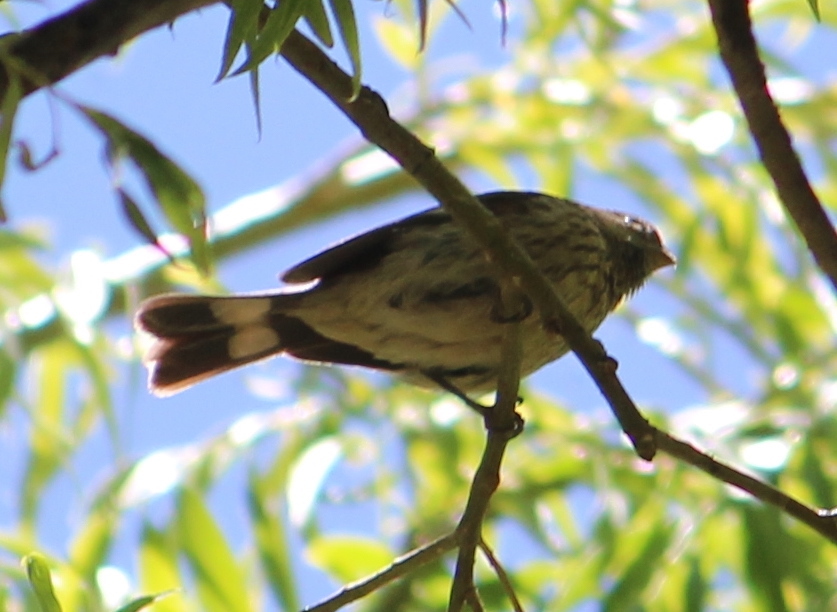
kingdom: Animalia
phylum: Chordata
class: Aves
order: Passeriformes
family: Thraupidae
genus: Catamenia
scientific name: Catamenia analis
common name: Band-tailed seedeater
